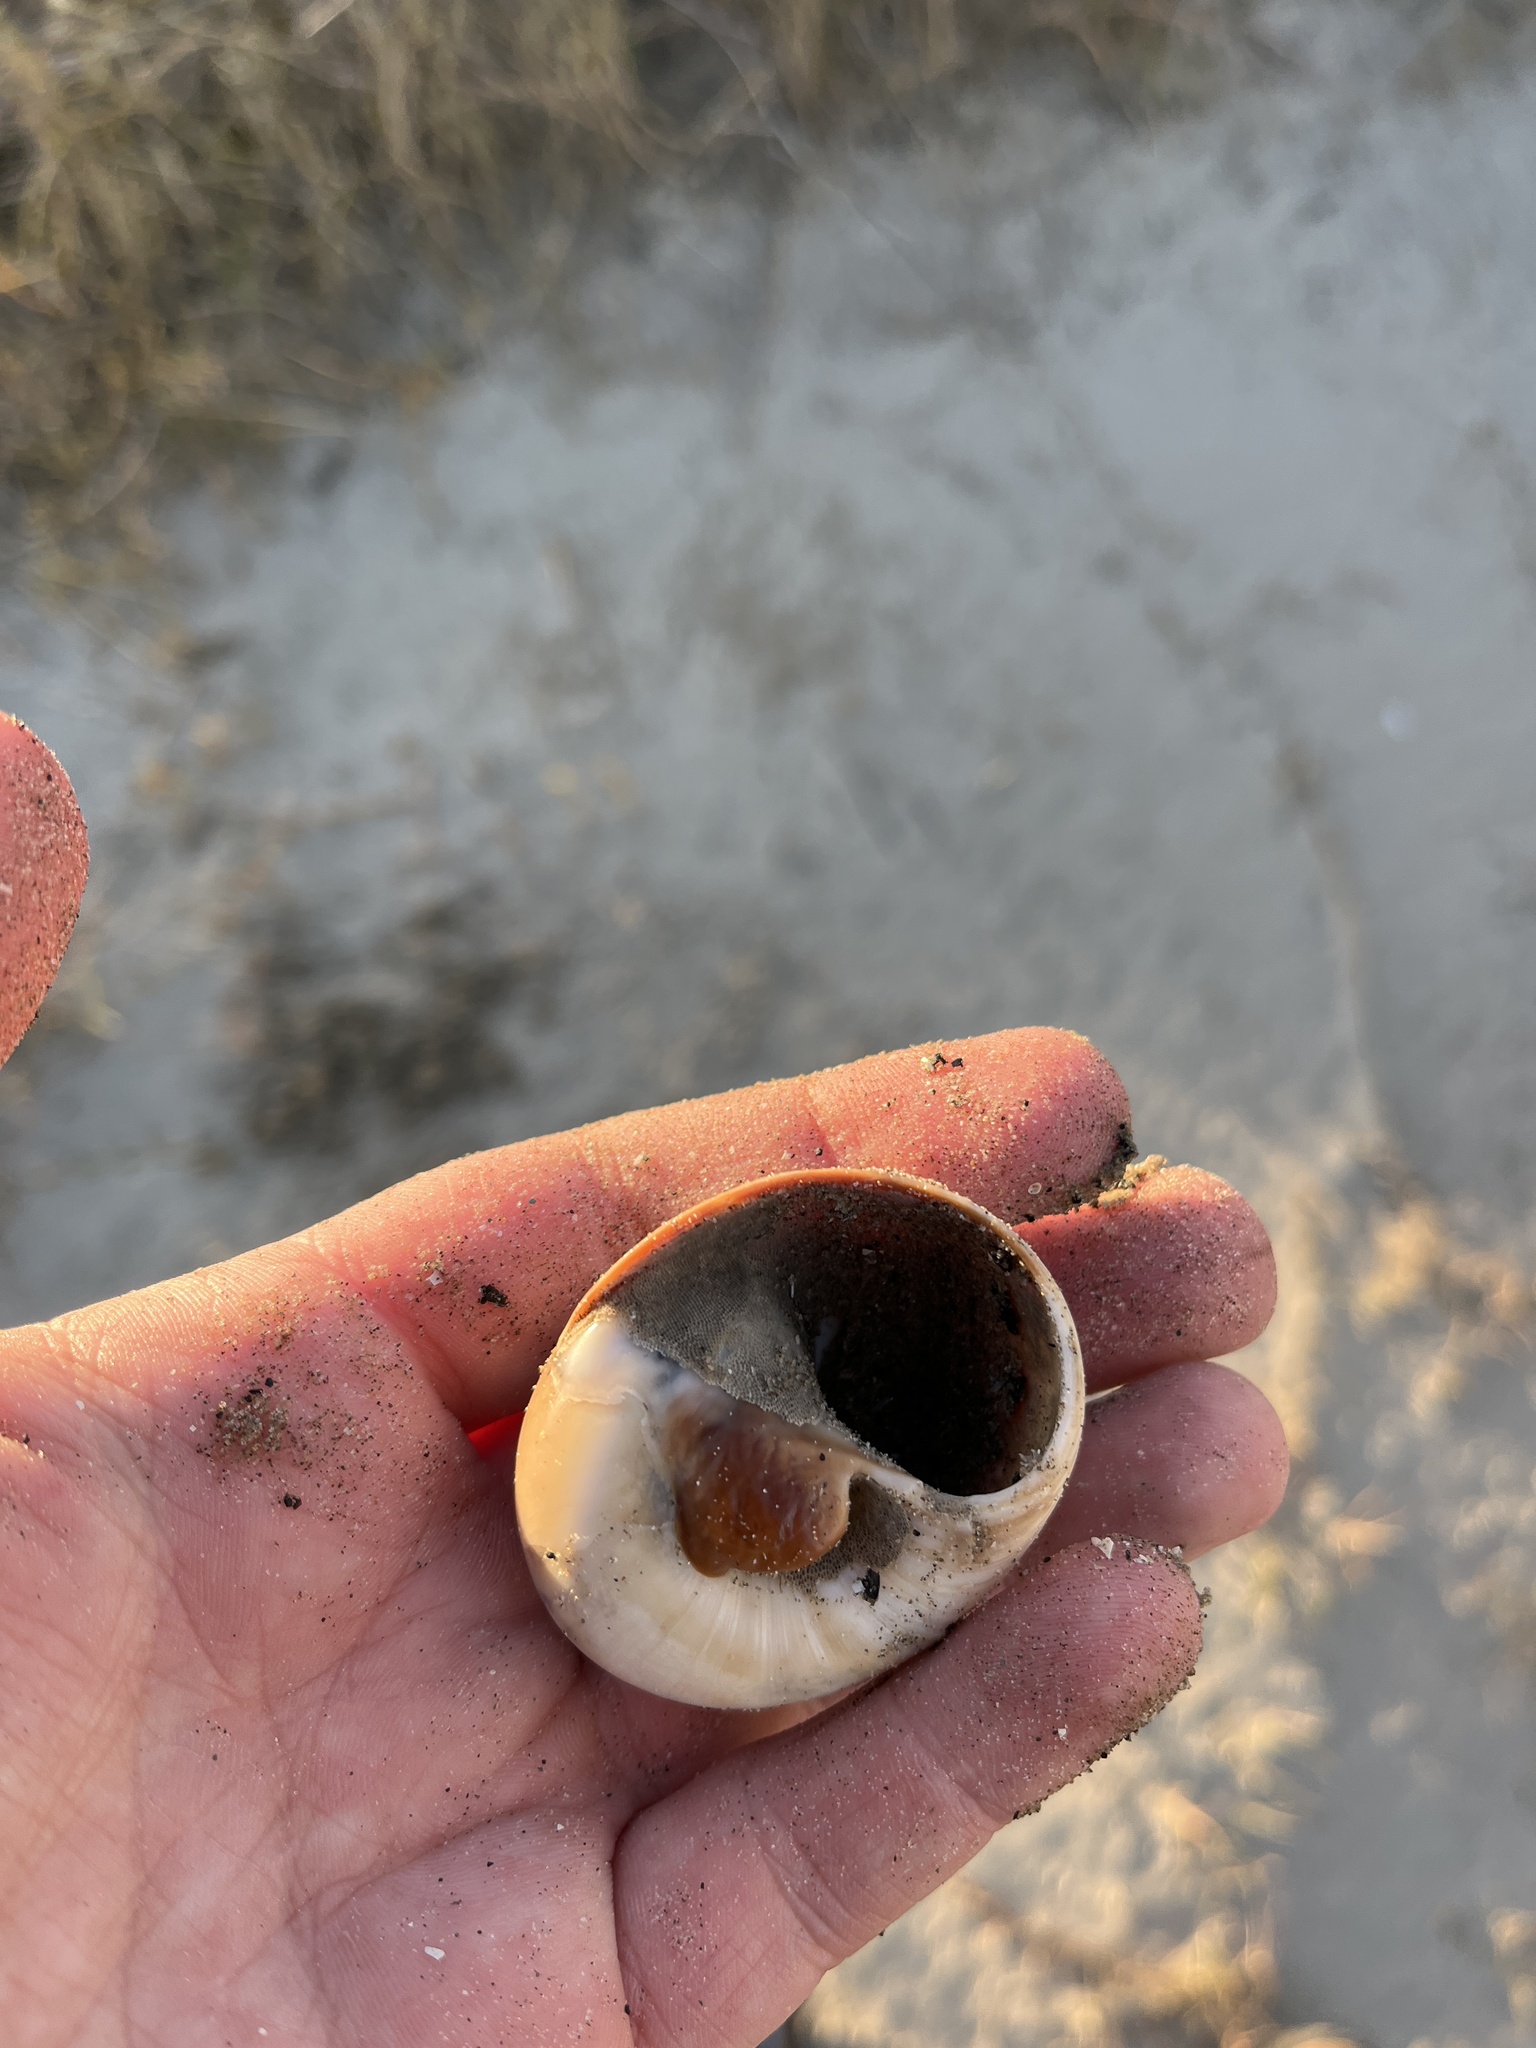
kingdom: Animalia
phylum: Mollusca
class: Gastropoda
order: Littorinimorpha
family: Naticidae
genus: Neverita
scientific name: Neverita duplicata
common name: Lobed moonsnail
